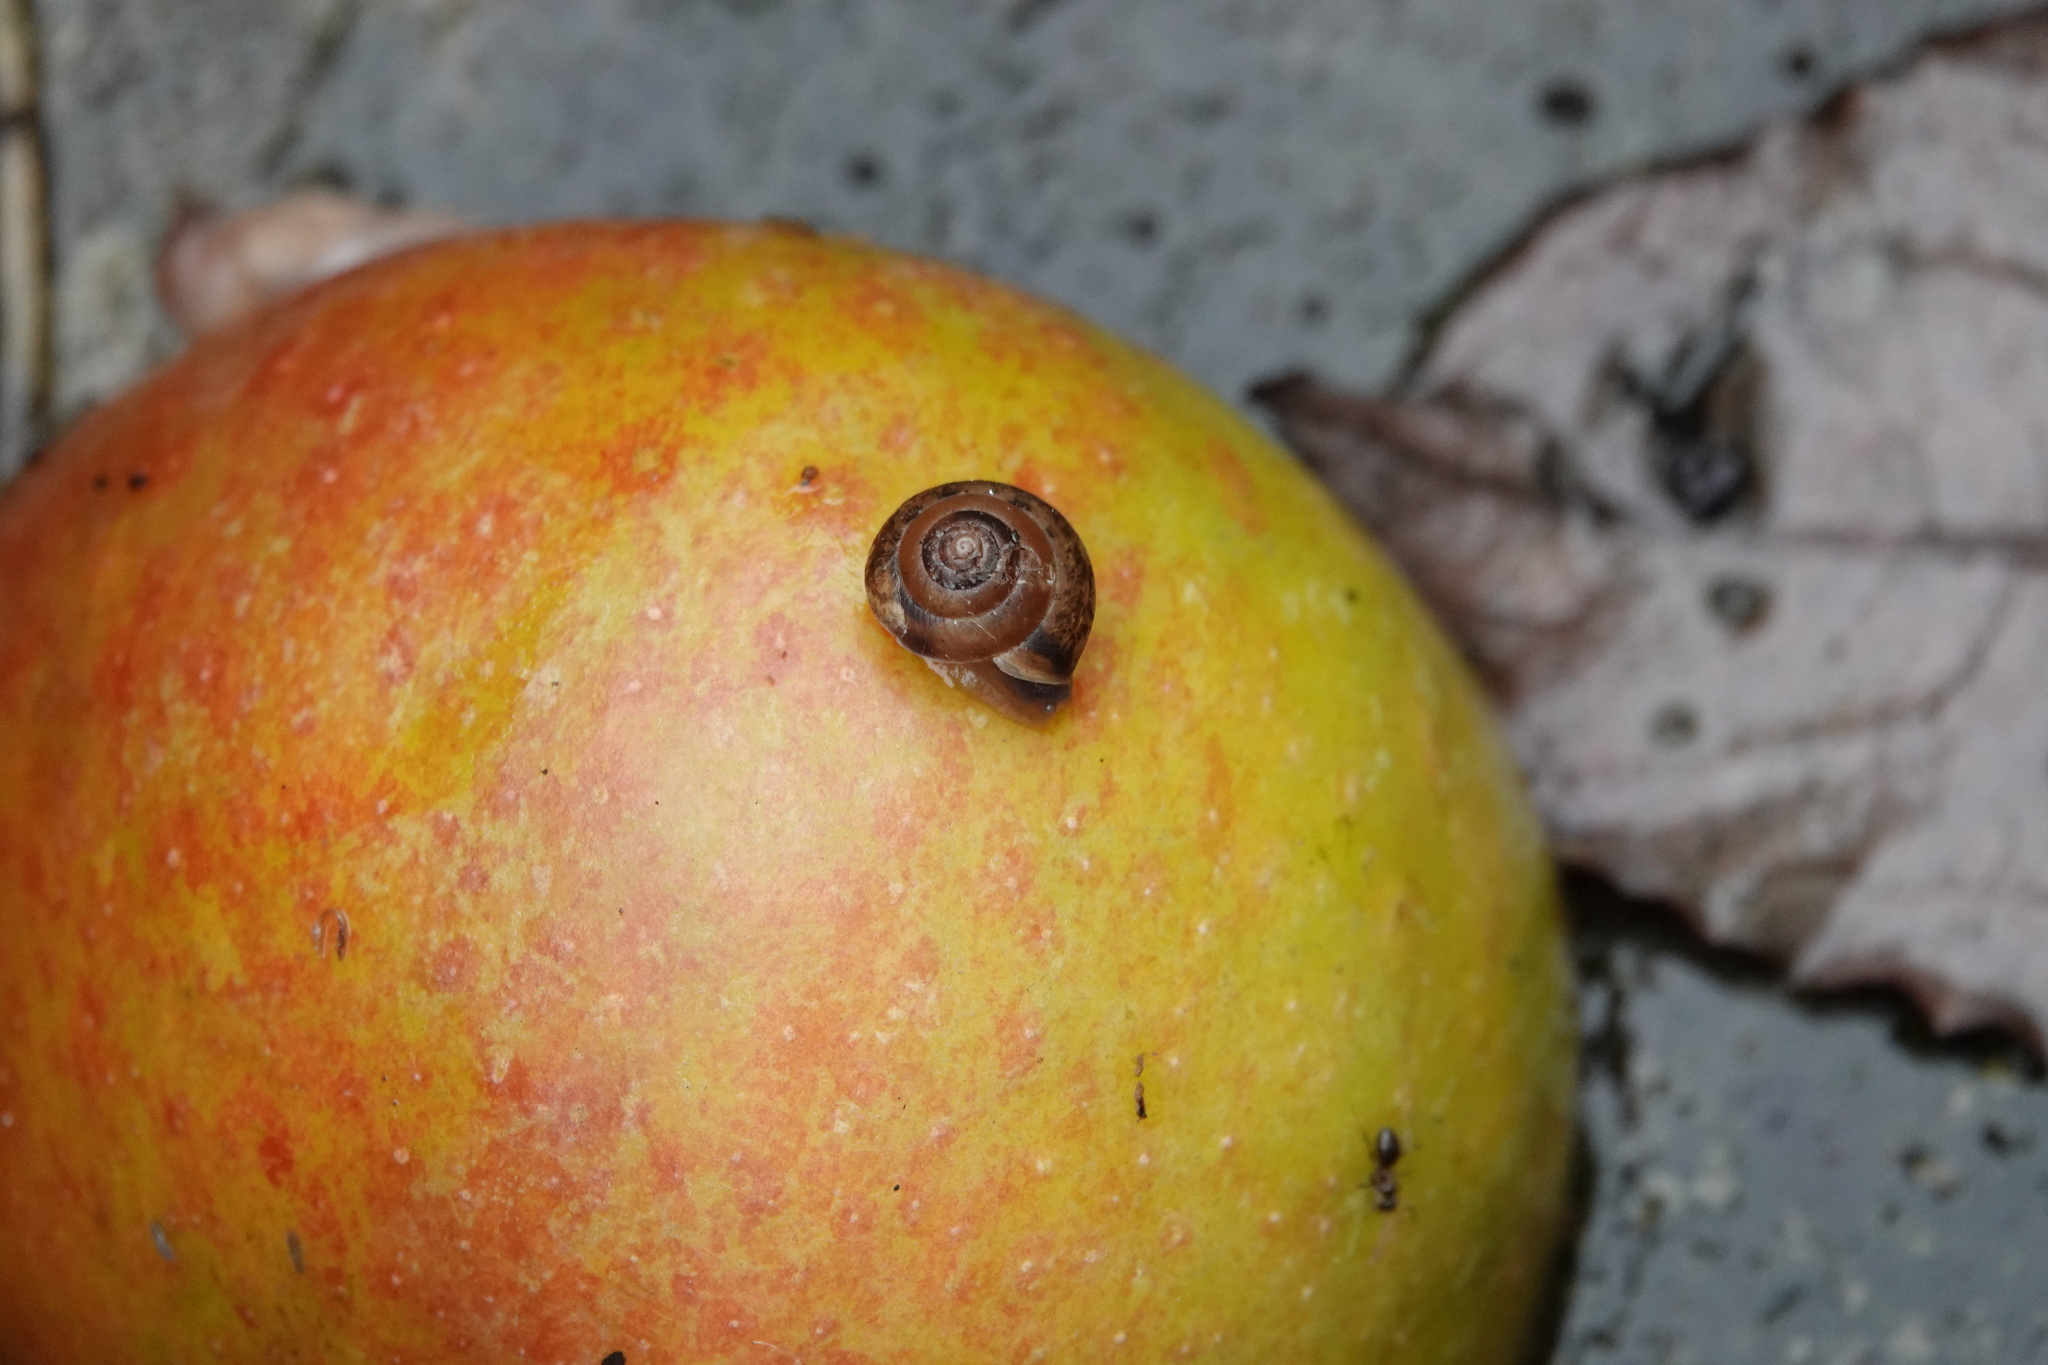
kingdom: Animalia
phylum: Mollusca
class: Gastropoda
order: Stylommatophora
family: Hygromiidae
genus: Hygromia
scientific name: Hygromia cinctella
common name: Girdled snail
